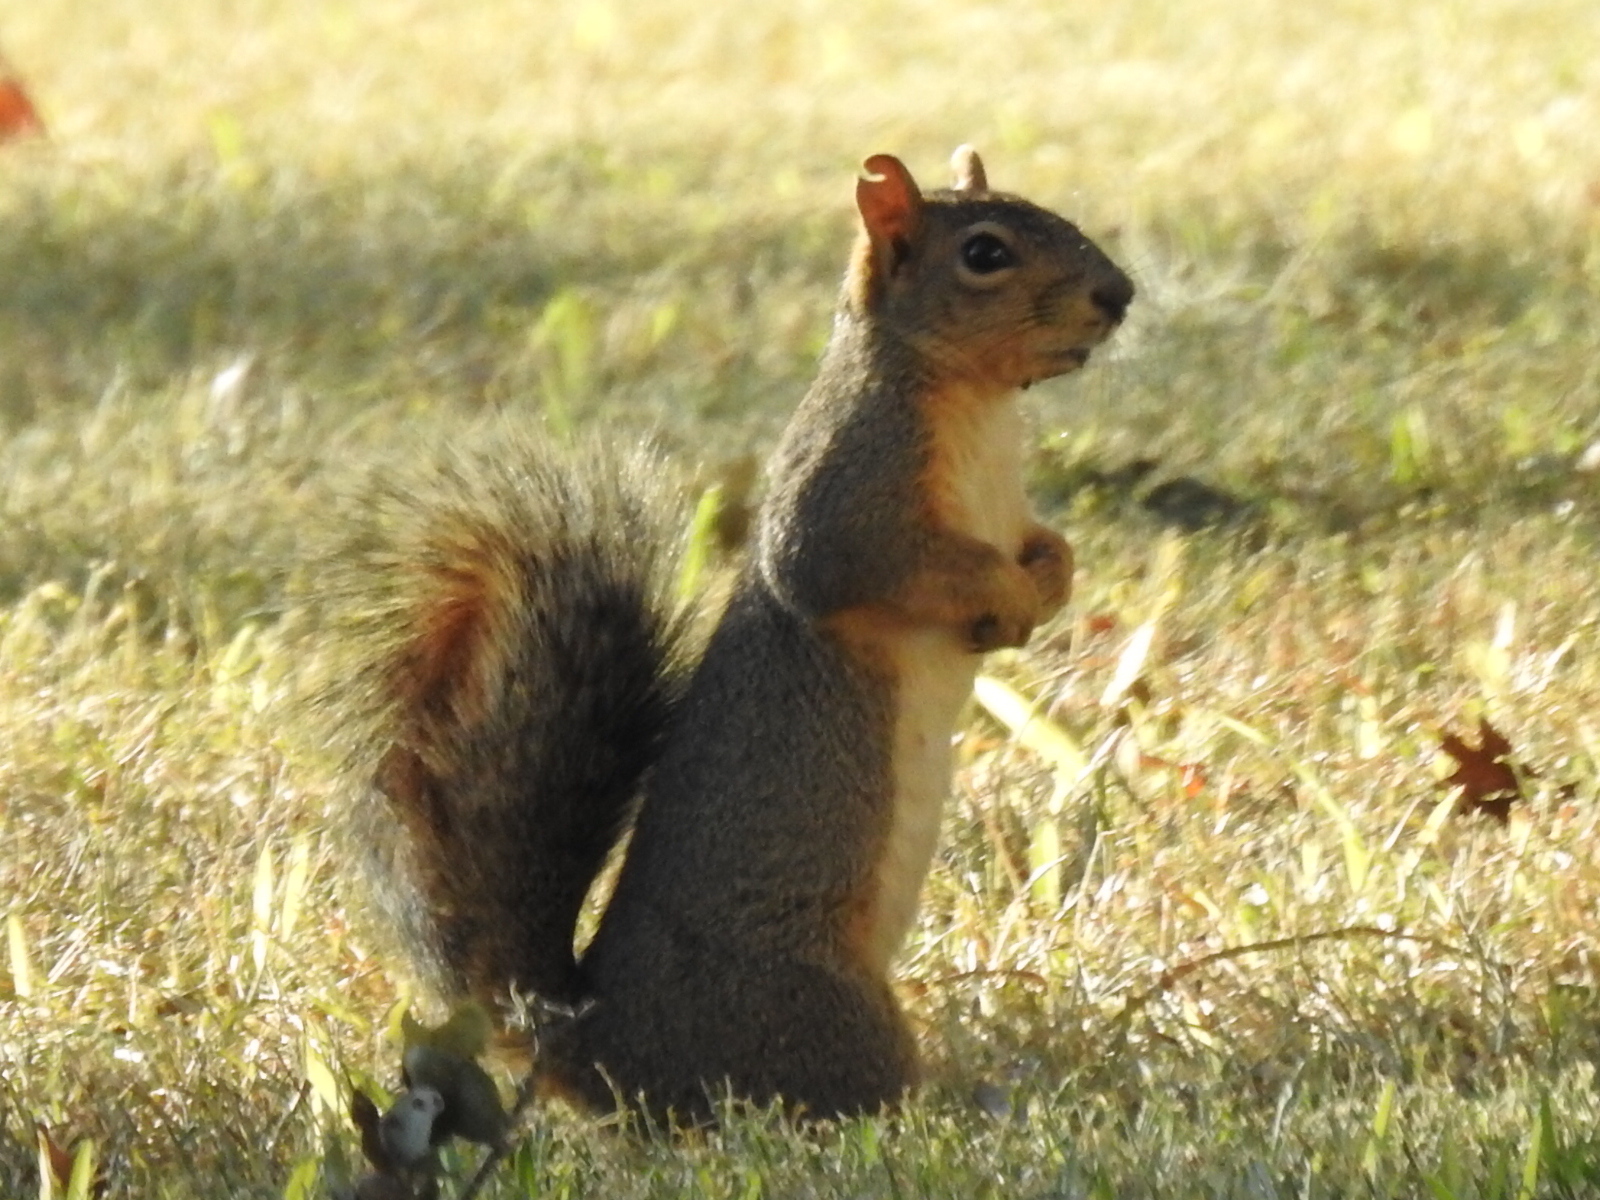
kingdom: Animalia
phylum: Chordata
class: Mammalia
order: Rodentia
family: Sciuridae
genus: Sciurus
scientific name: Sciurus niger
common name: Fox squirrel
